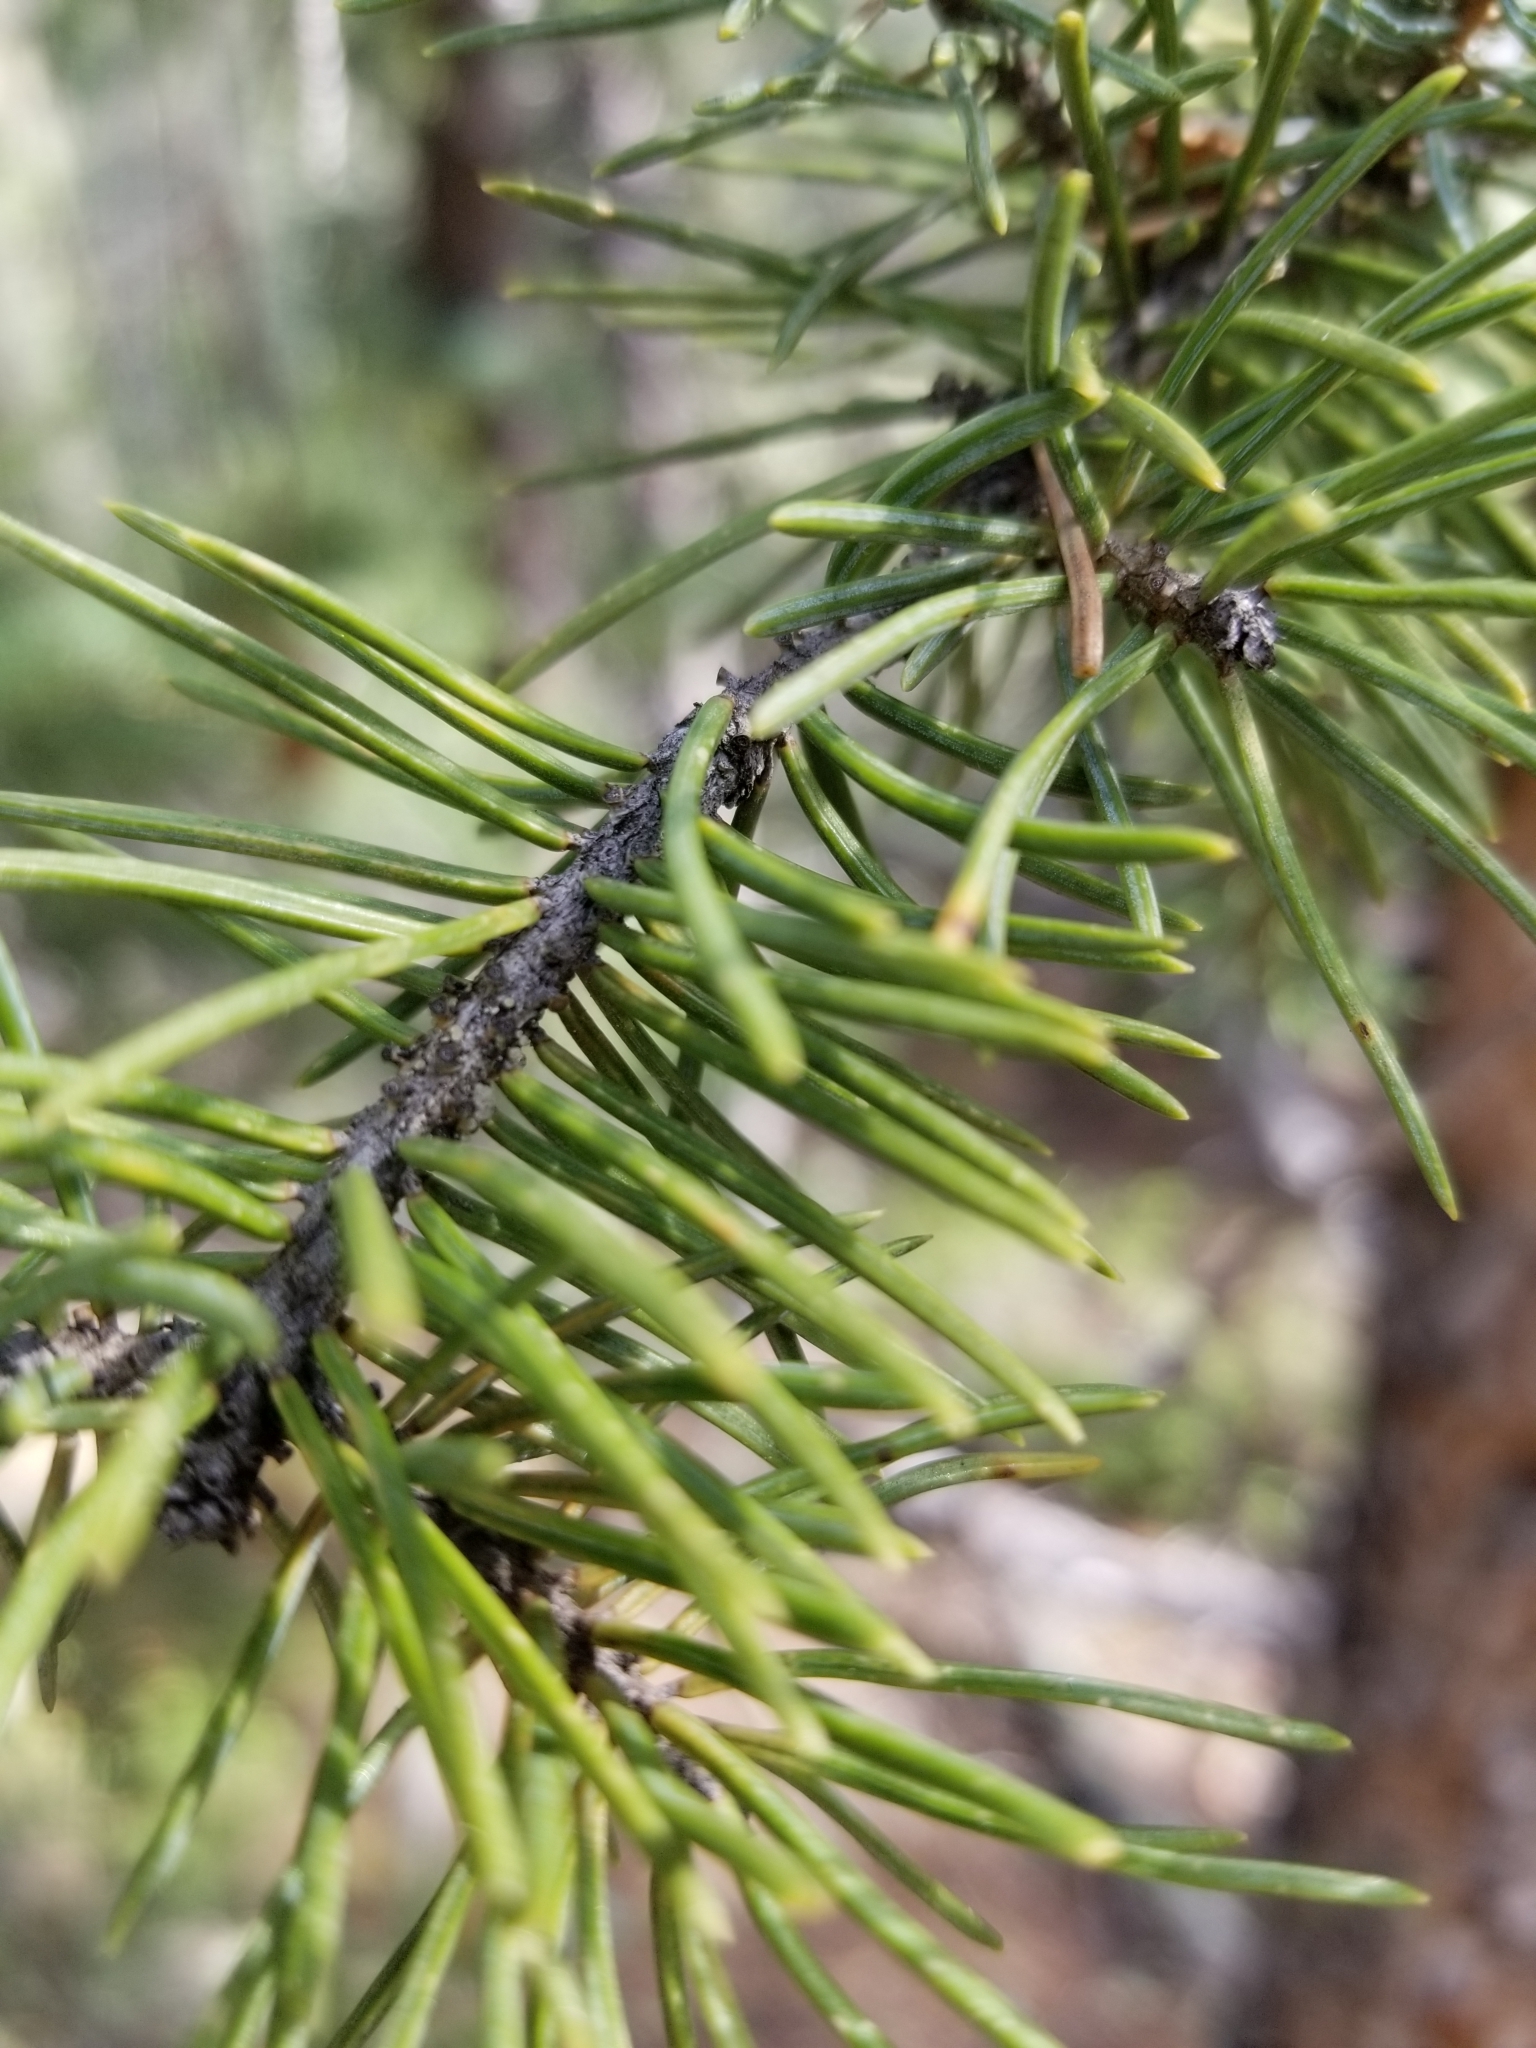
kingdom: Plantae
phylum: Tracheophyta
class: Pinopsida
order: Pinales
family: Pinaceae
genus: Picea
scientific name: Picea engelmannii
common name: Engelmann spruce
